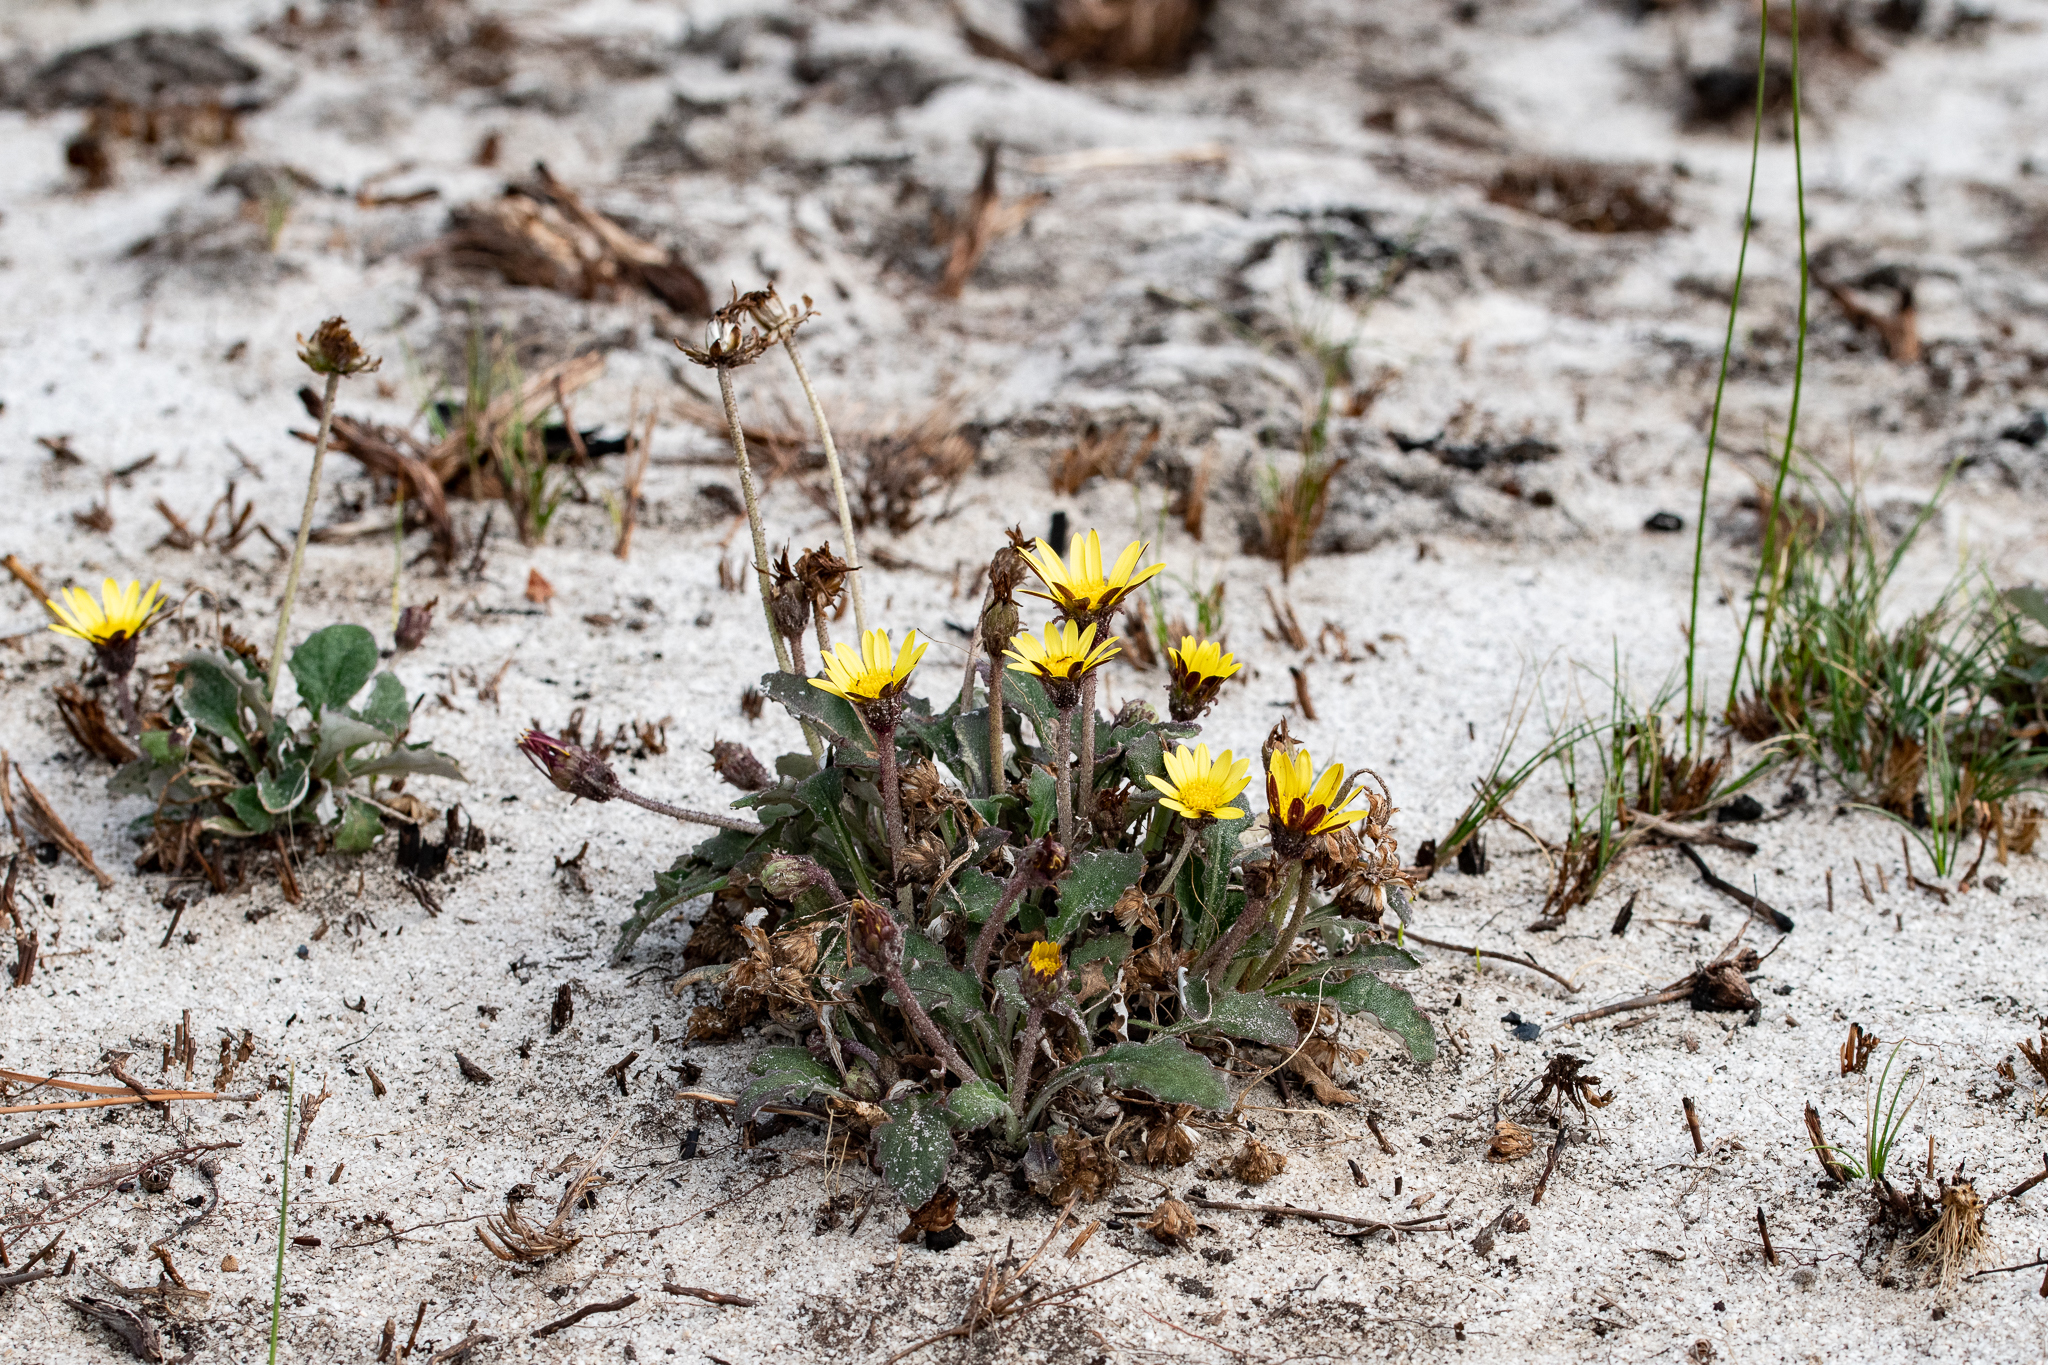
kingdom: Plantae
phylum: Tracheophyta
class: Magnoliopsida
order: Asterales
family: Asteraceae
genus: Haplocarpha
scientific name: Haplocarpha lanata
